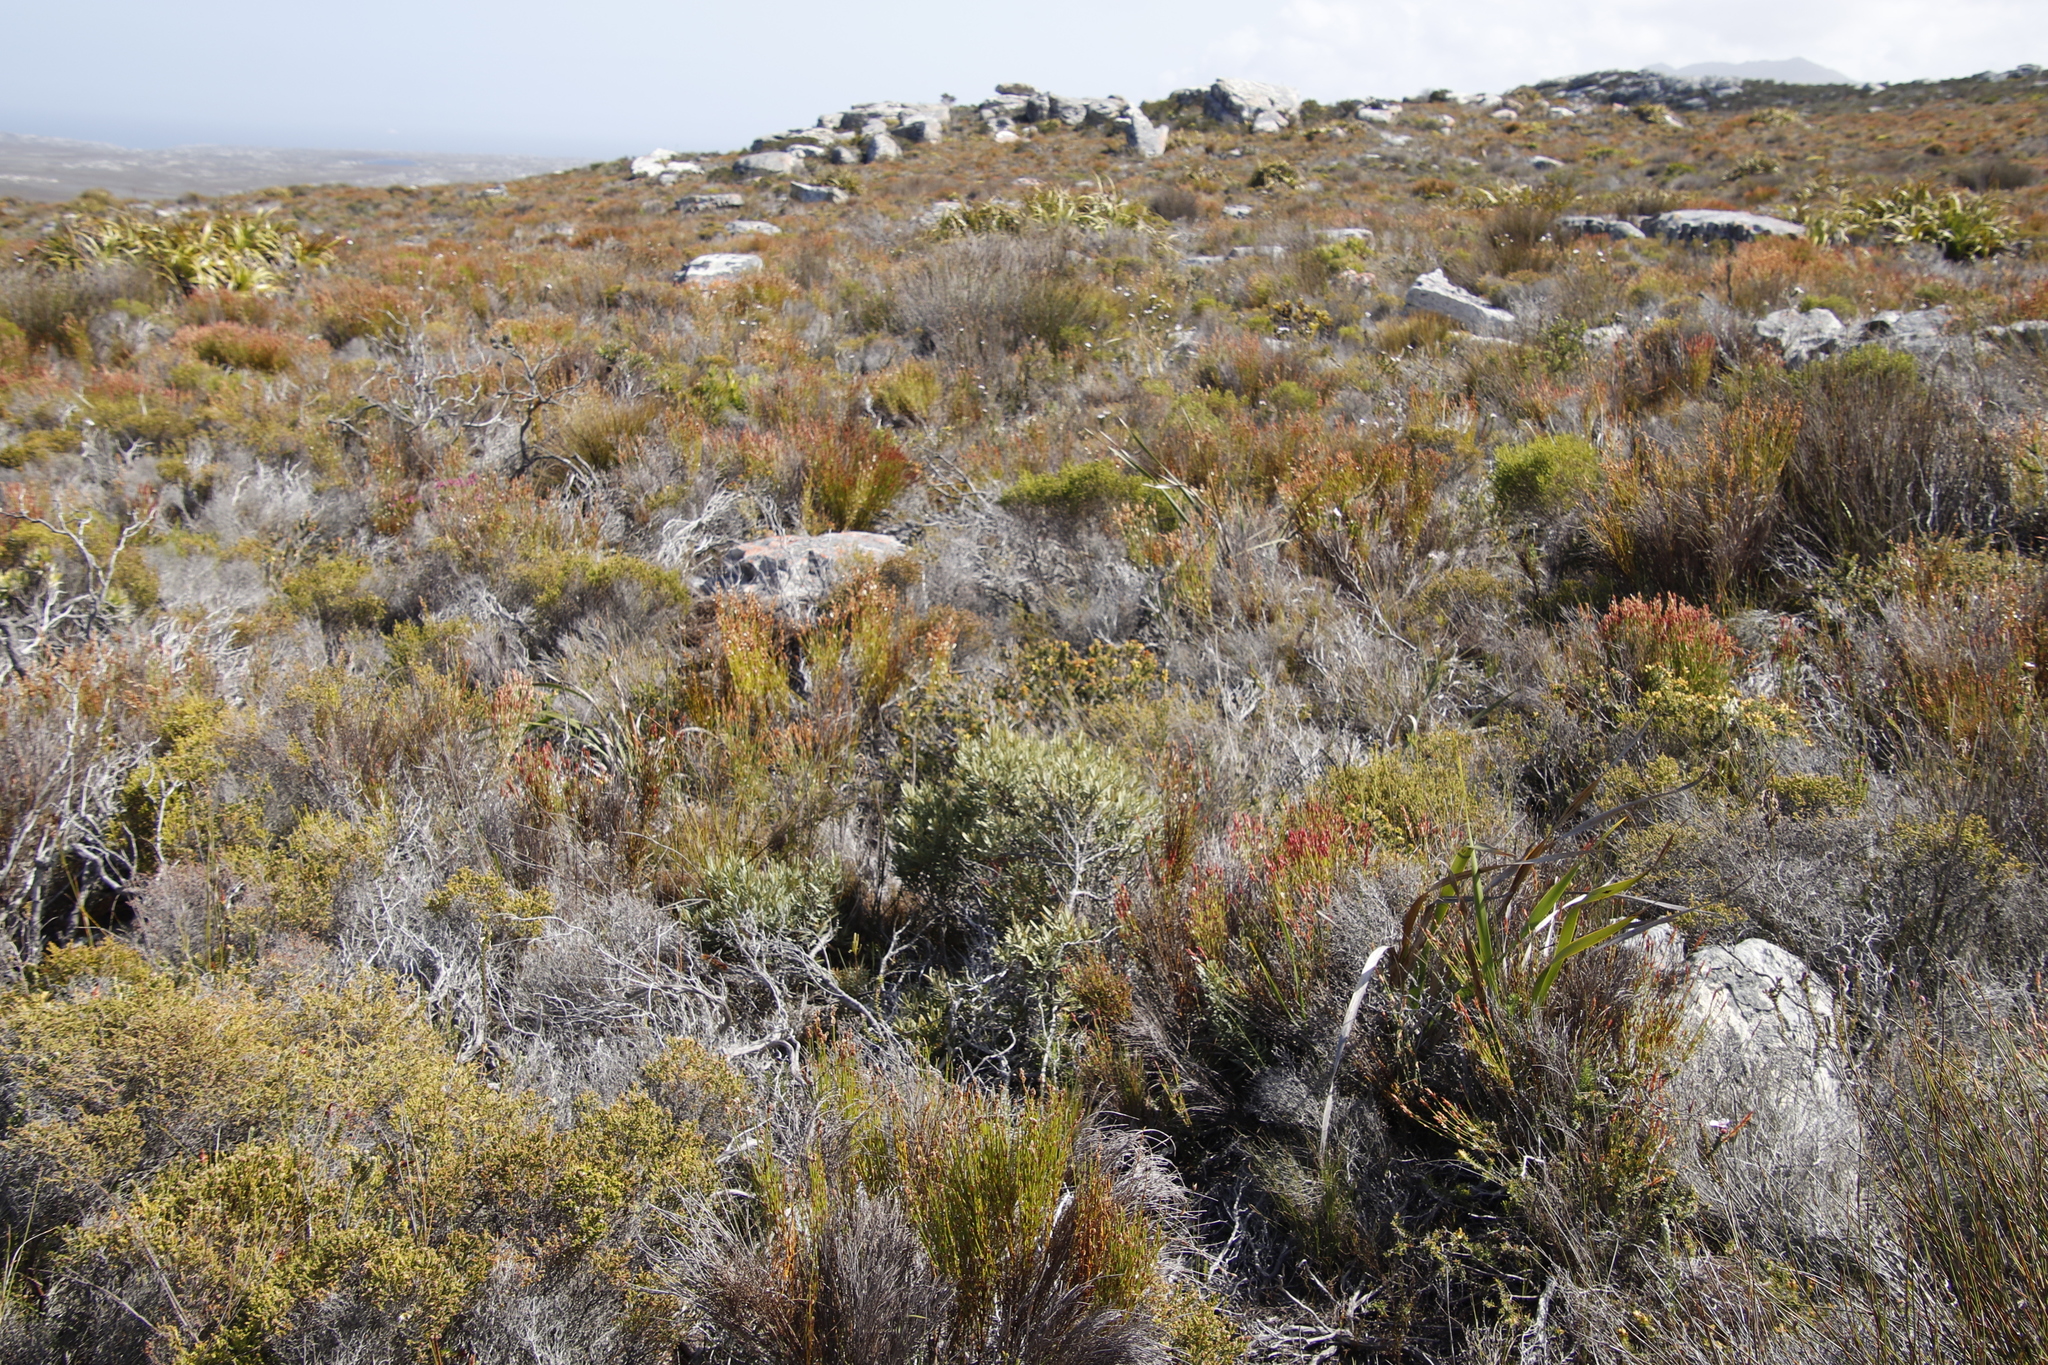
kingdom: Plantae
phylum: Tracheophyta
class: Magnoliopsida
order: Cornales
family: Grubbiaceae
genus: Grubbia
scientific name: Grubbia tomentosa
